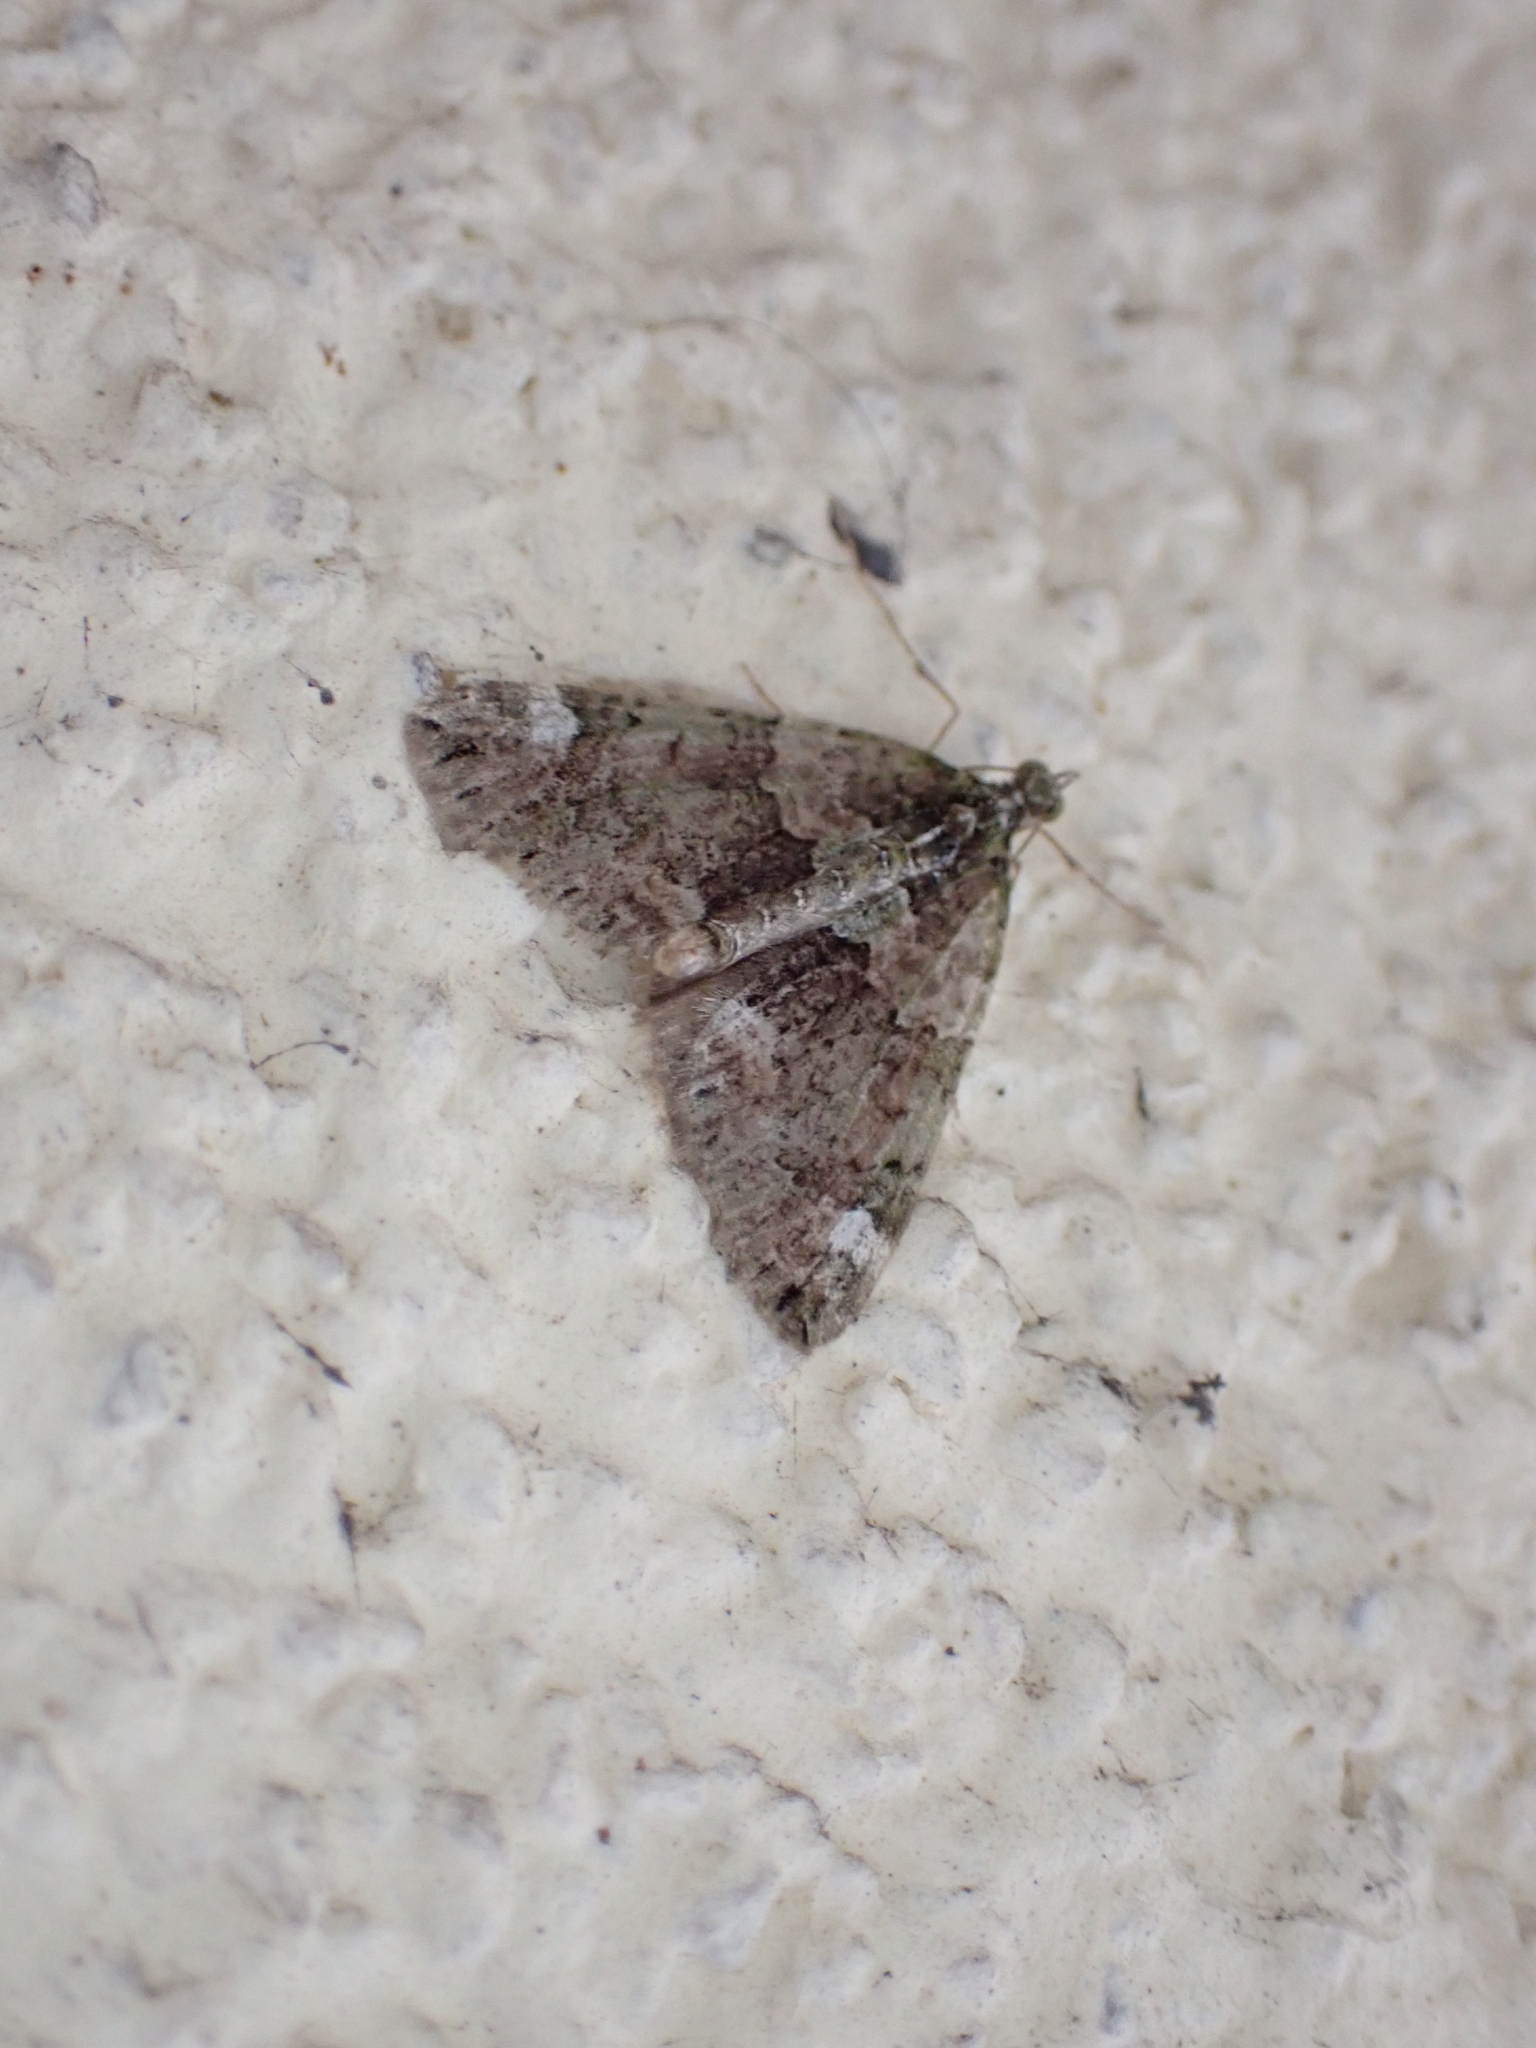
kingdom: Animalia
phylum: Arthropoda
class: Insecta
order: Lepidoptera
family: Geometridae
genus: Chloroclysta
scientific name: Chloroclysta siterata
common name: Red-green carpet
